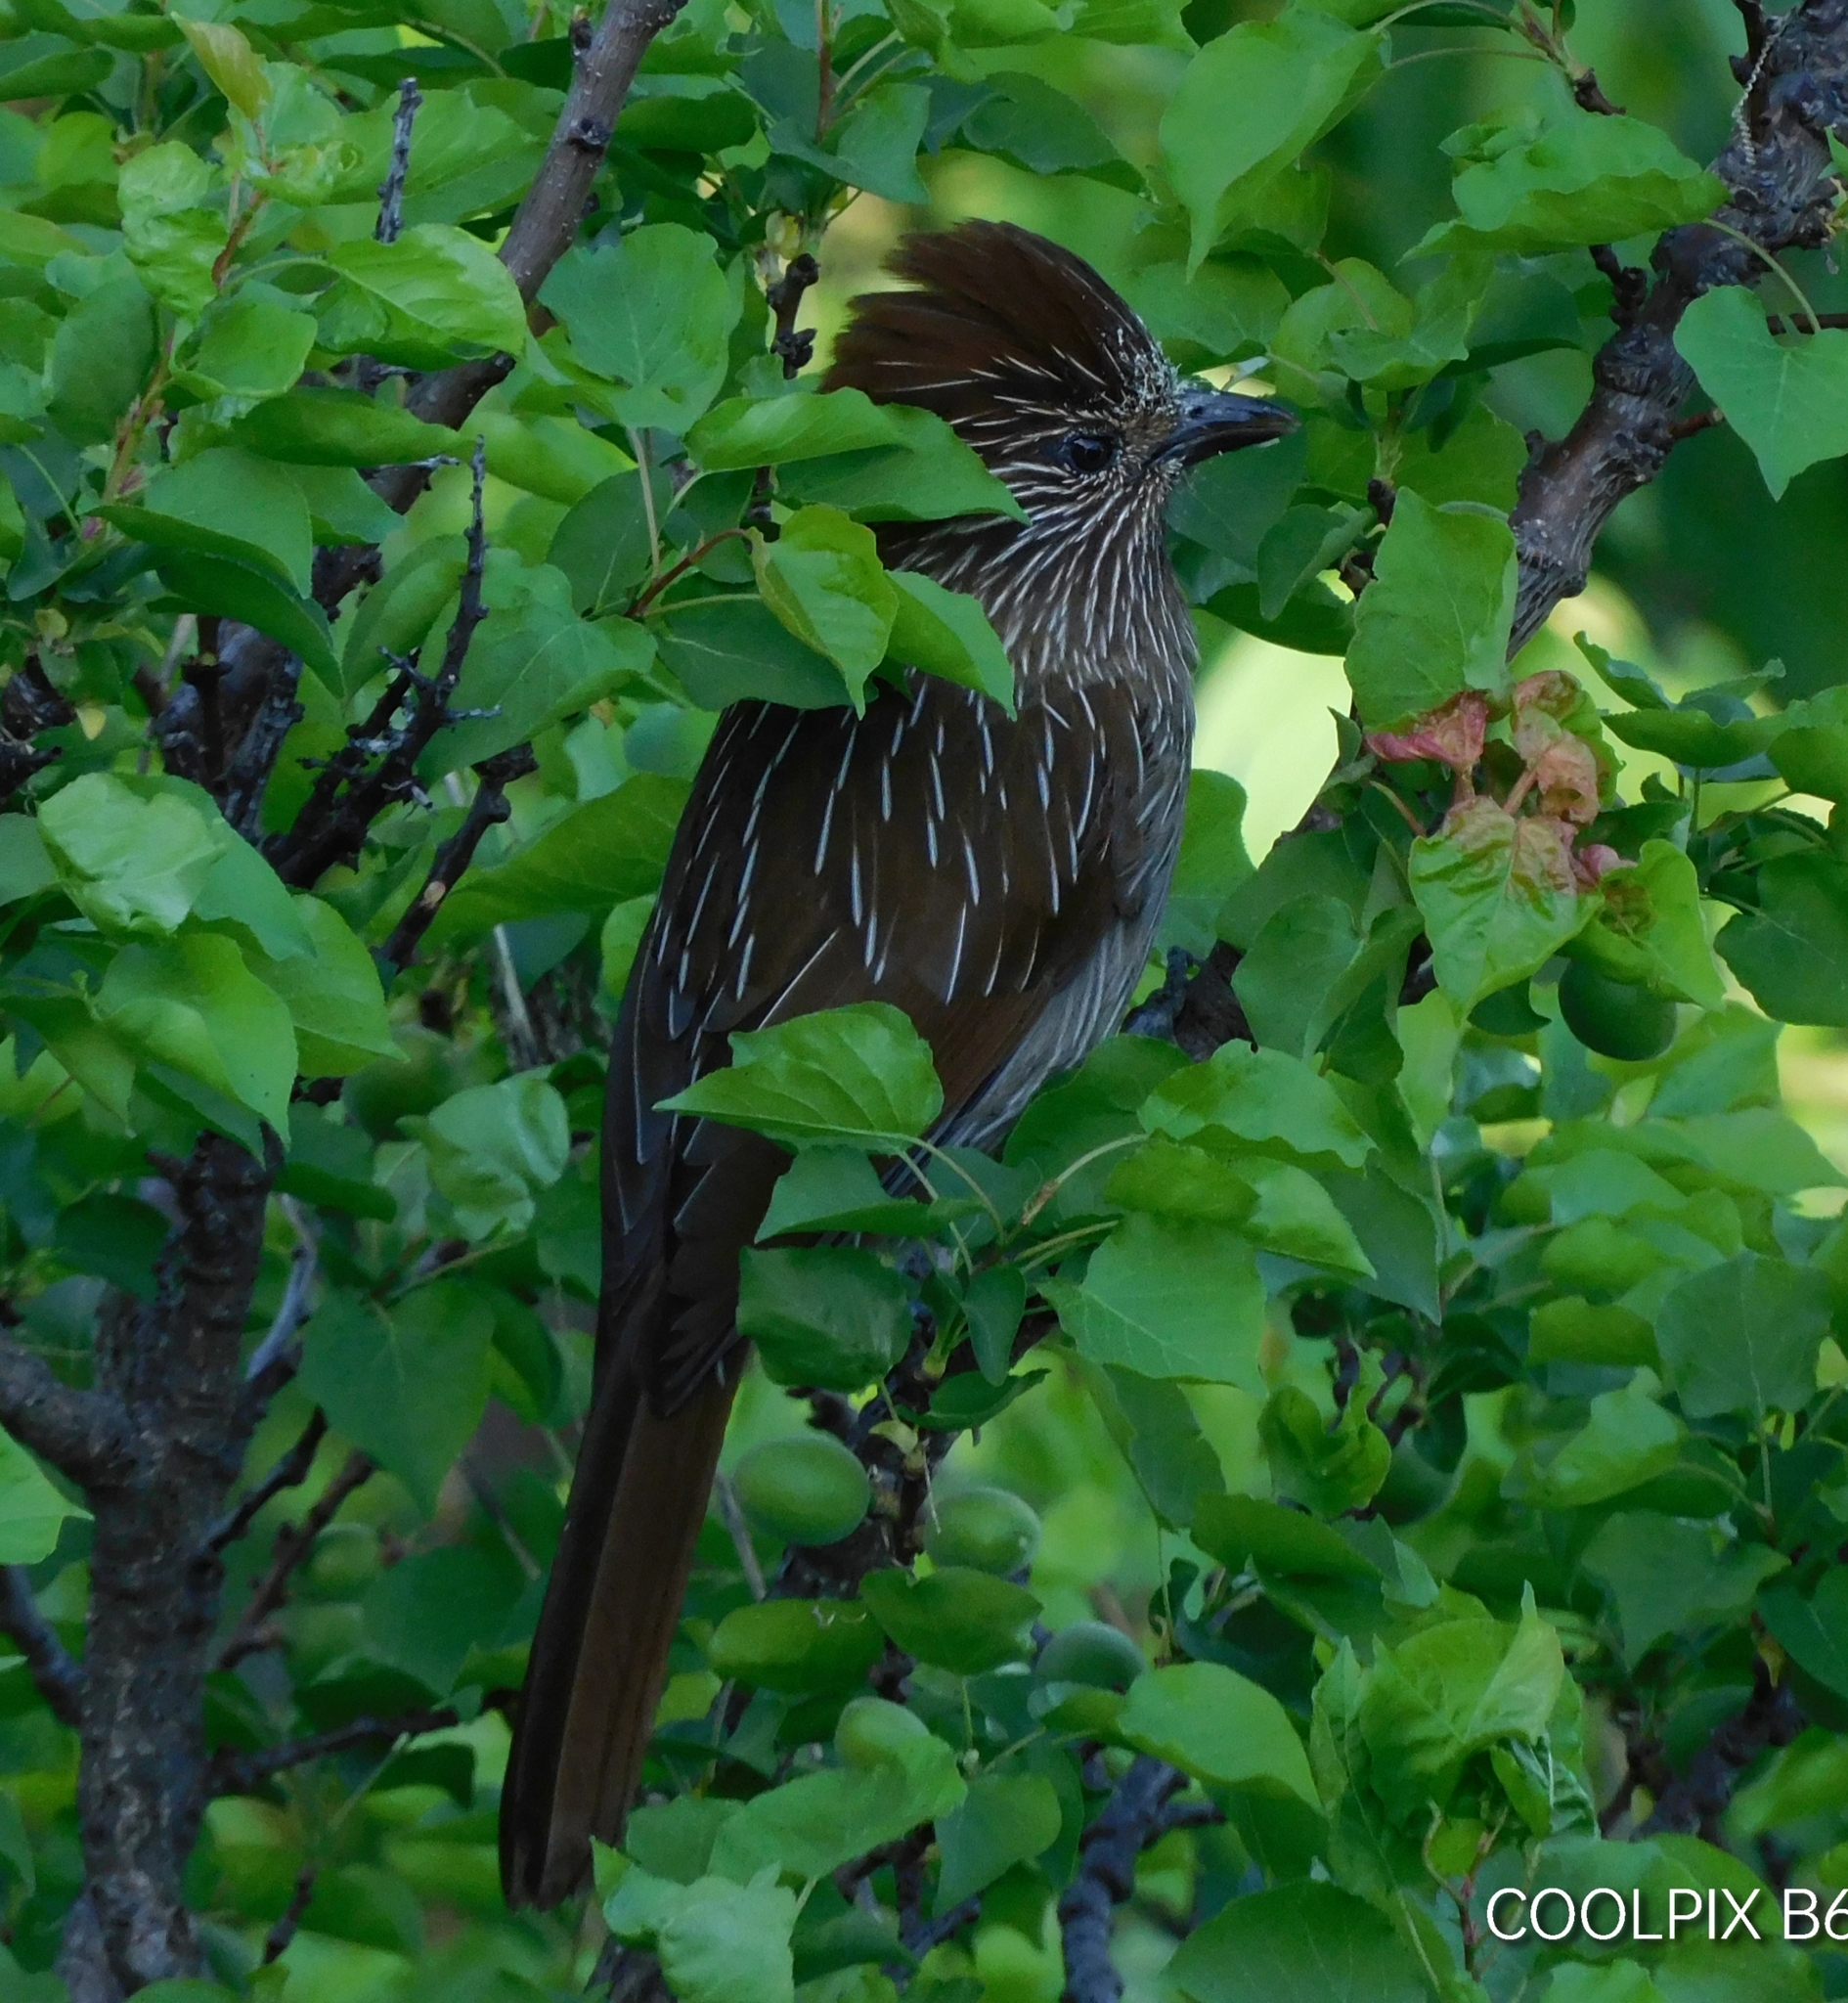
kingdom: Animalia
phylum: Chordata
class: Aves
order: Passeriformes
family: Leiothrichidae
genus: Garrulax
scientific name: Garrulax striatus
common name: Striated laughingthrush
